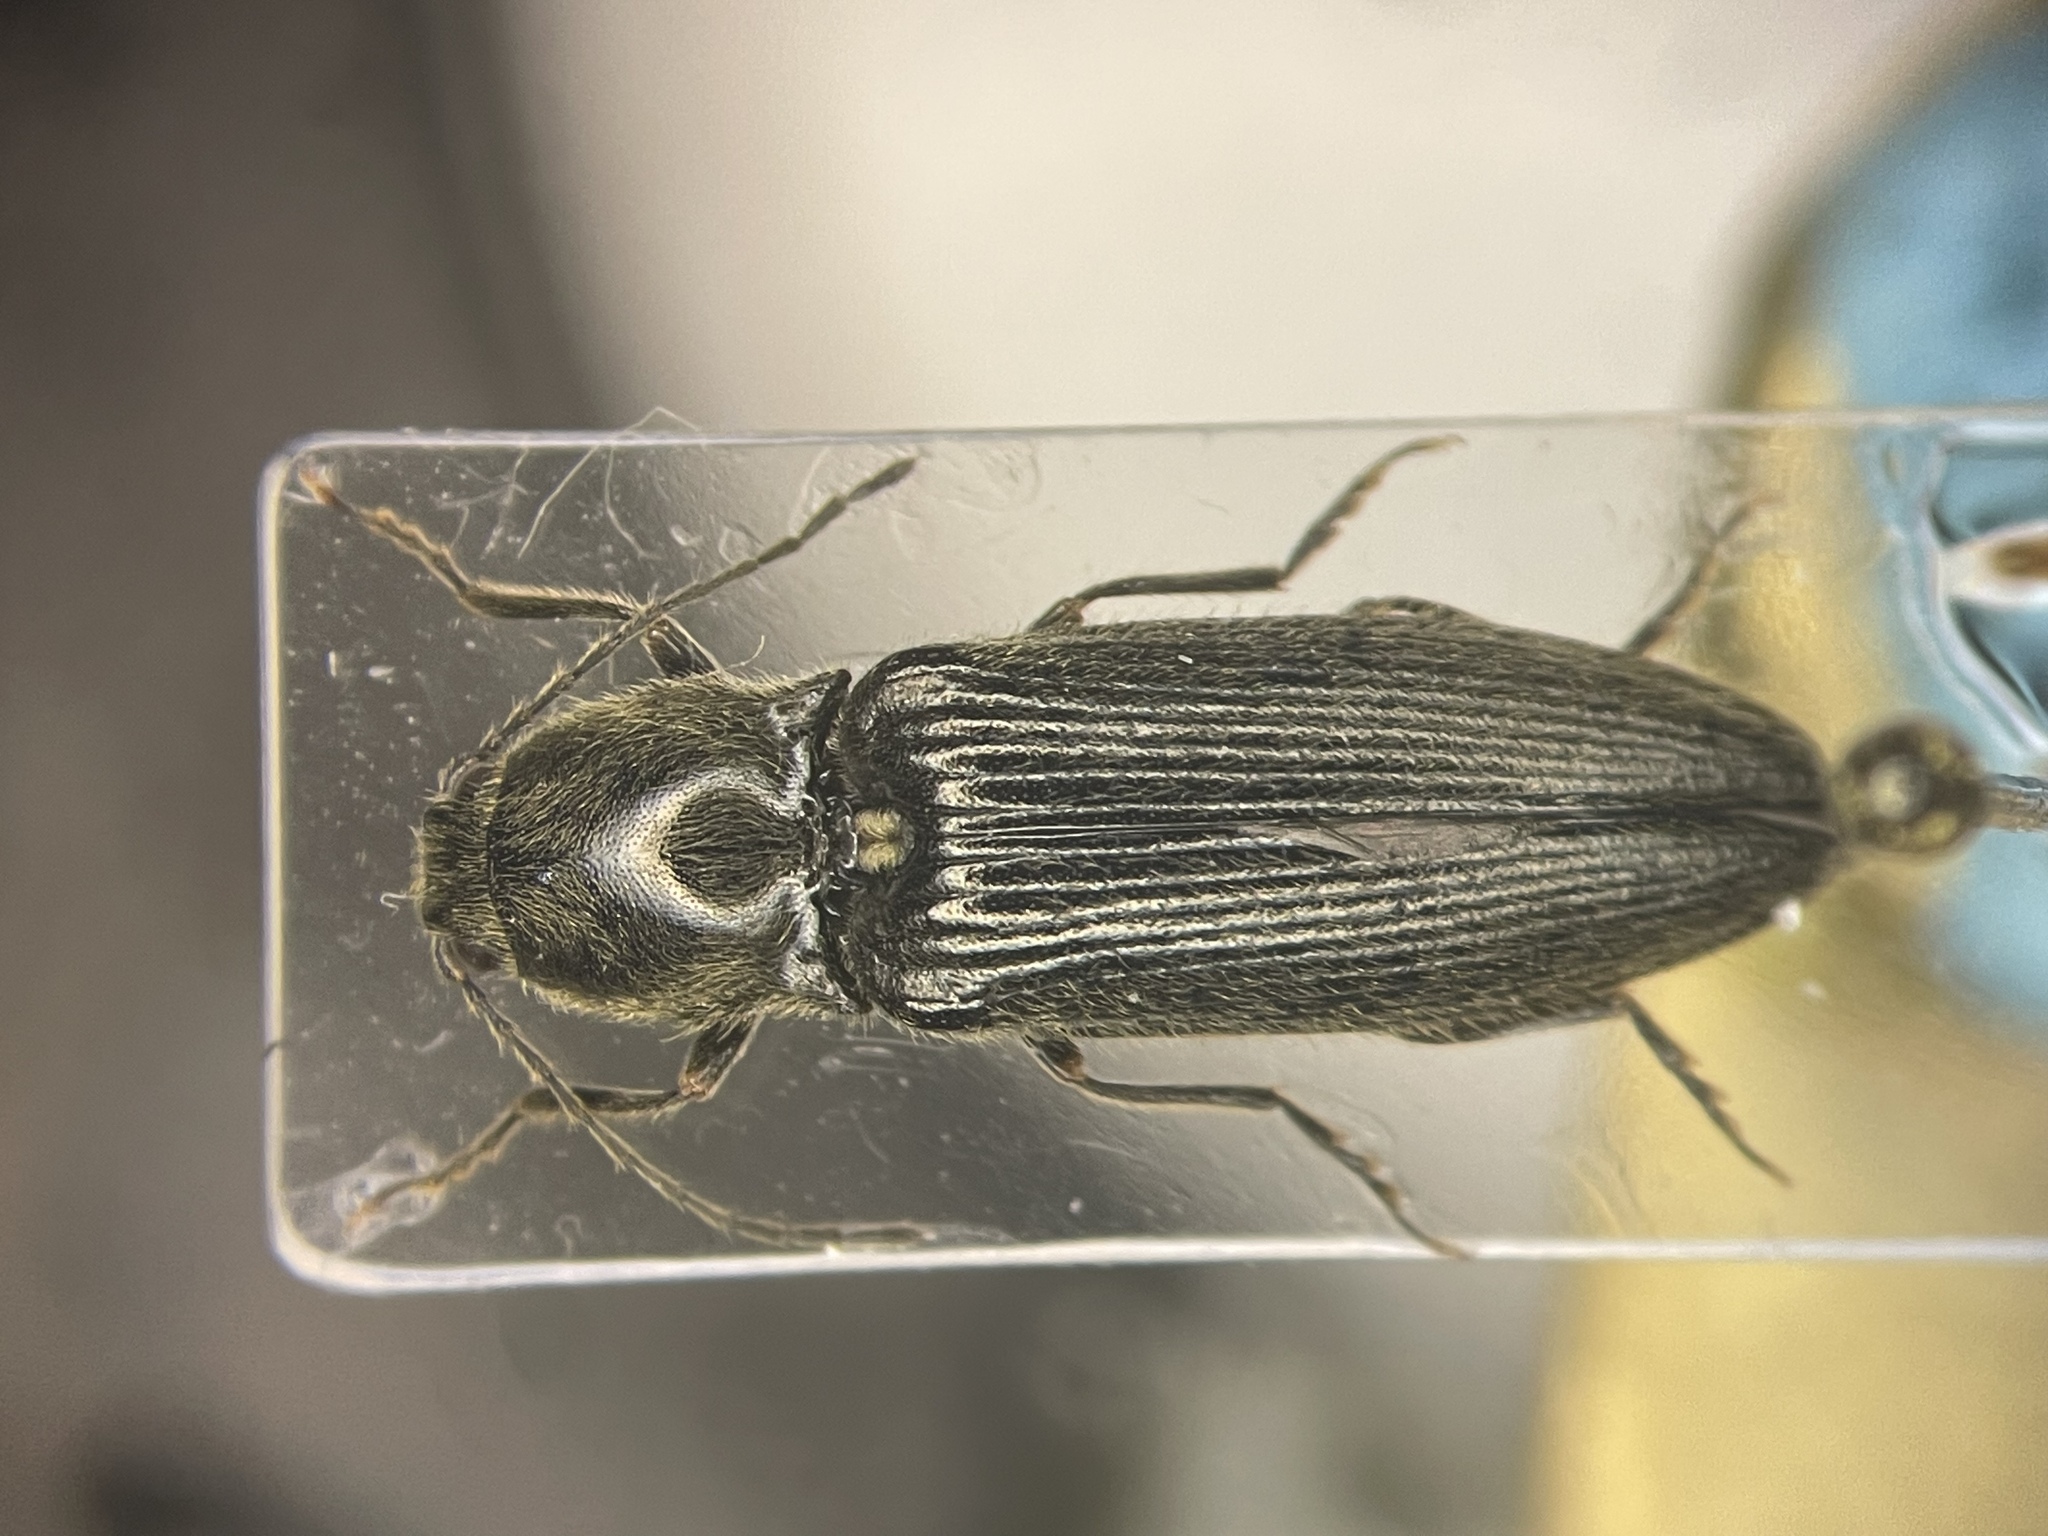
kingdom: Animalia
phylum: Arthropoda
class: Insecta
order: Coleoptera
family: Elateridae
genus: Hemicrepidius
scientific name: Hemicrepidius
